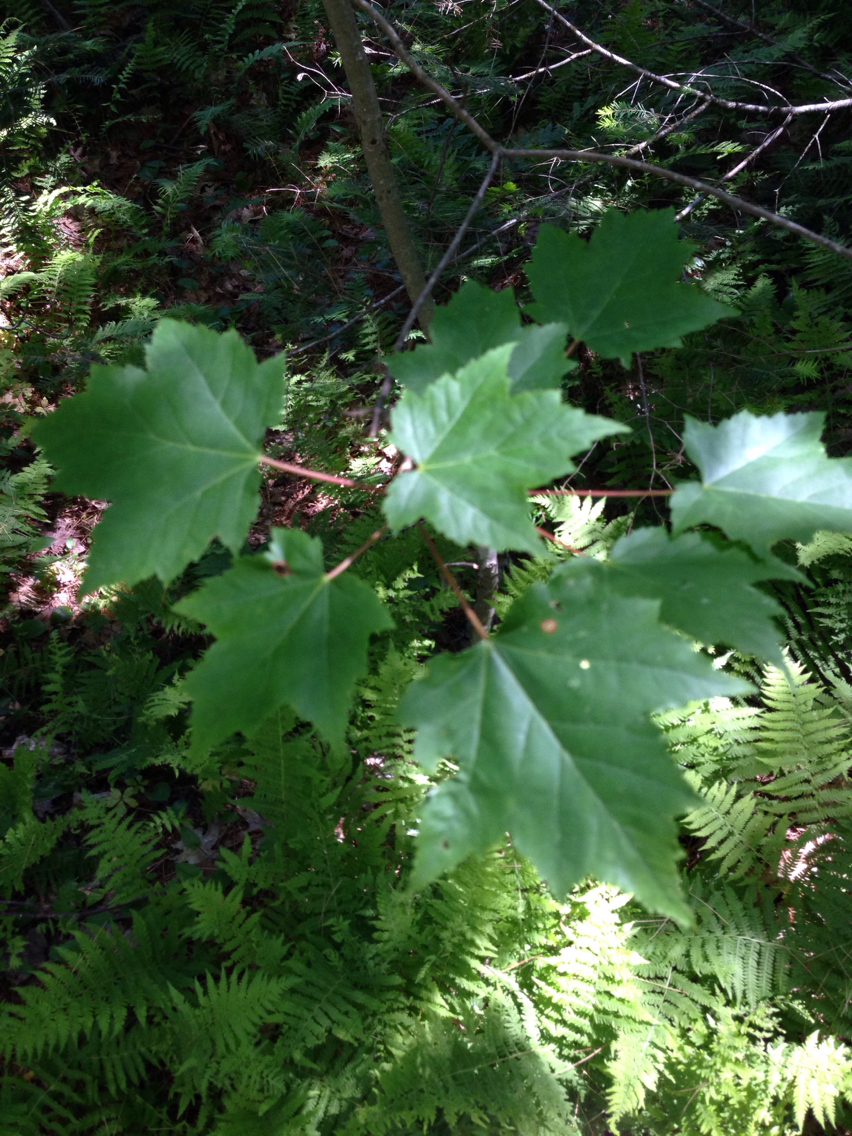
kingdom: Plantae
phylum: Tracheophyta
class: Magnoliopsida
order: Sapindales
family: Sapindaceae
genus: Acer
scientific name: Acer rubrum
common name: Red maple
